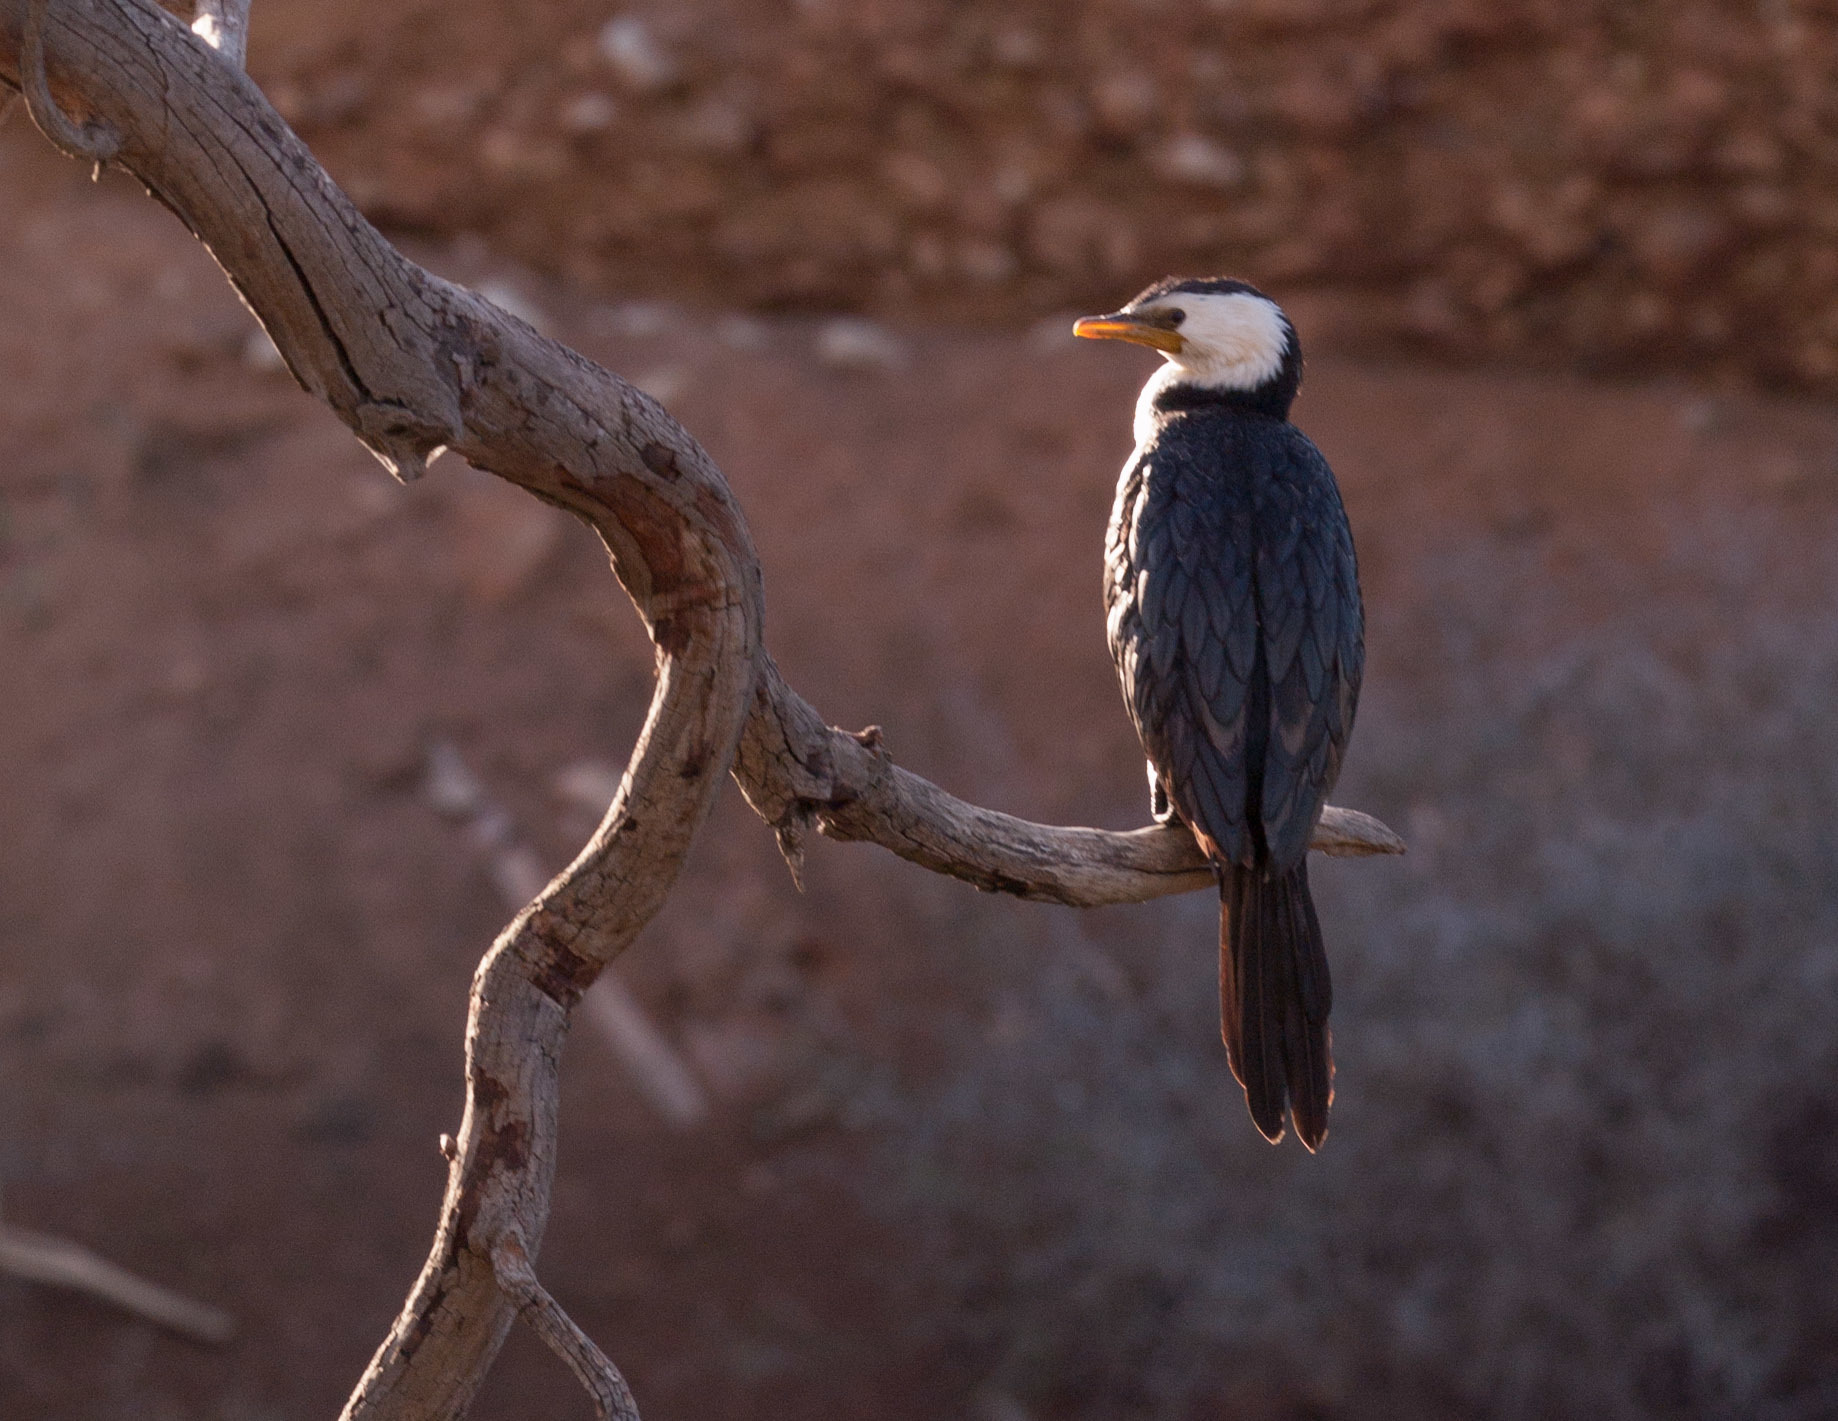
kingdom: Animalia
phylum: Chordata
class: Aves
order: Suliformes
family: Phalacrocoracidae
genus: Microcarbo
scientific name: Microcarbo melanoleucos
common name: Little pied cormorant
